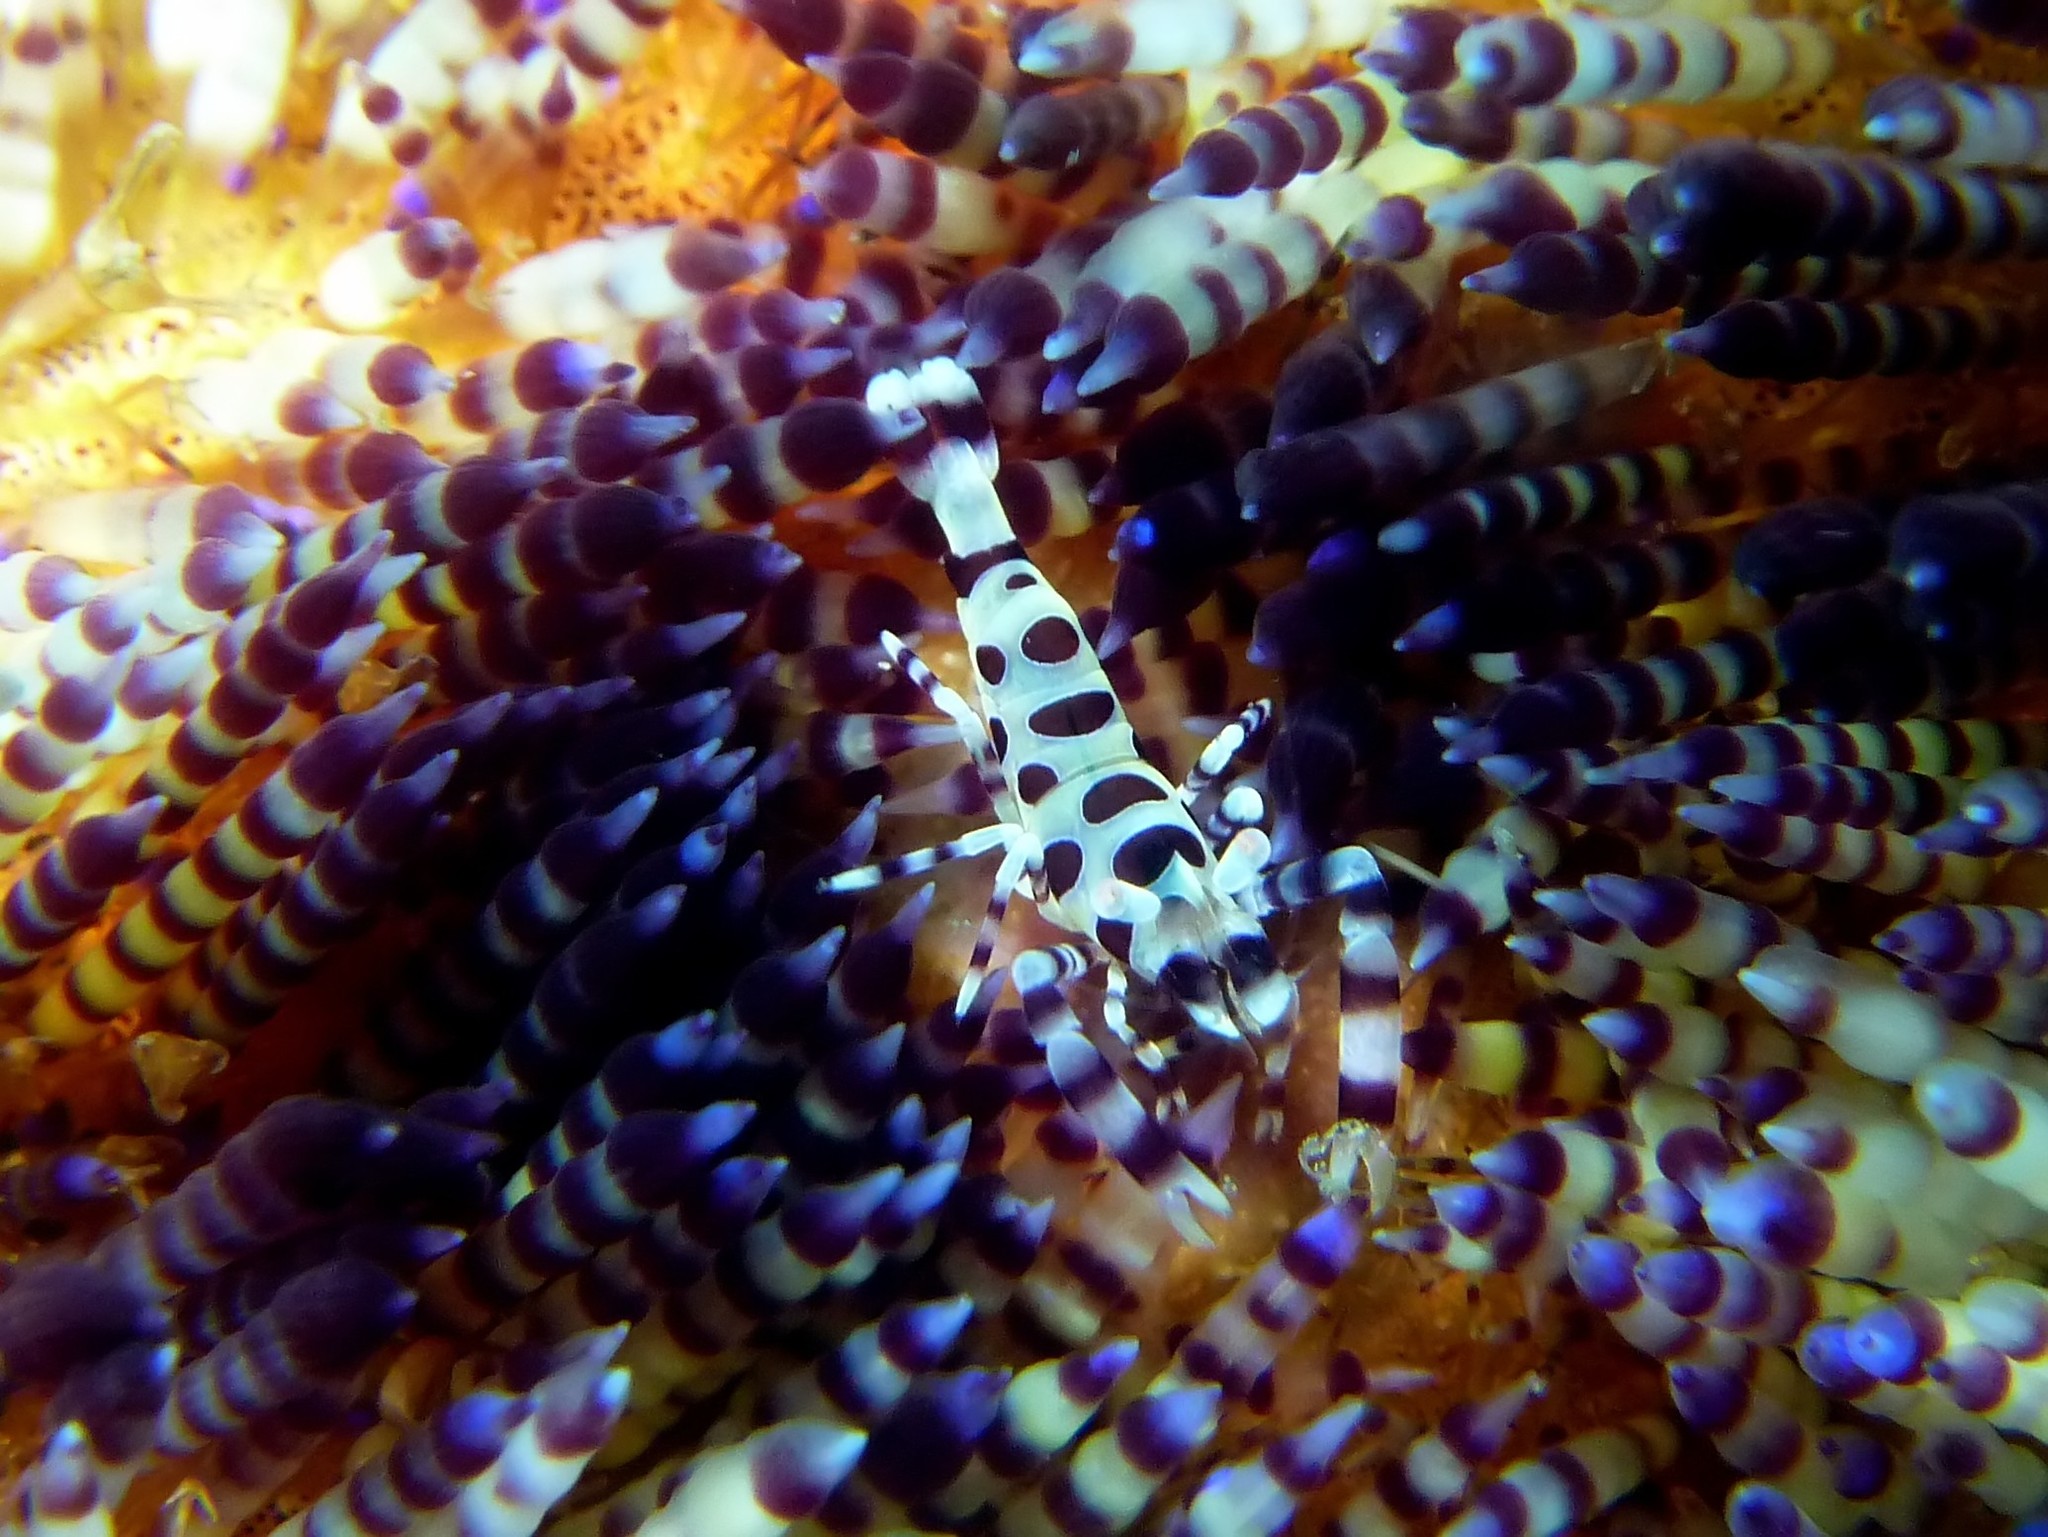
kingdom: Animalia
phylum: Arthropoda
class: Malacostraca
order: Decapoda
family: Palaemonidae
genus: Periclimenes
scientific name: Periclimenes colemani
